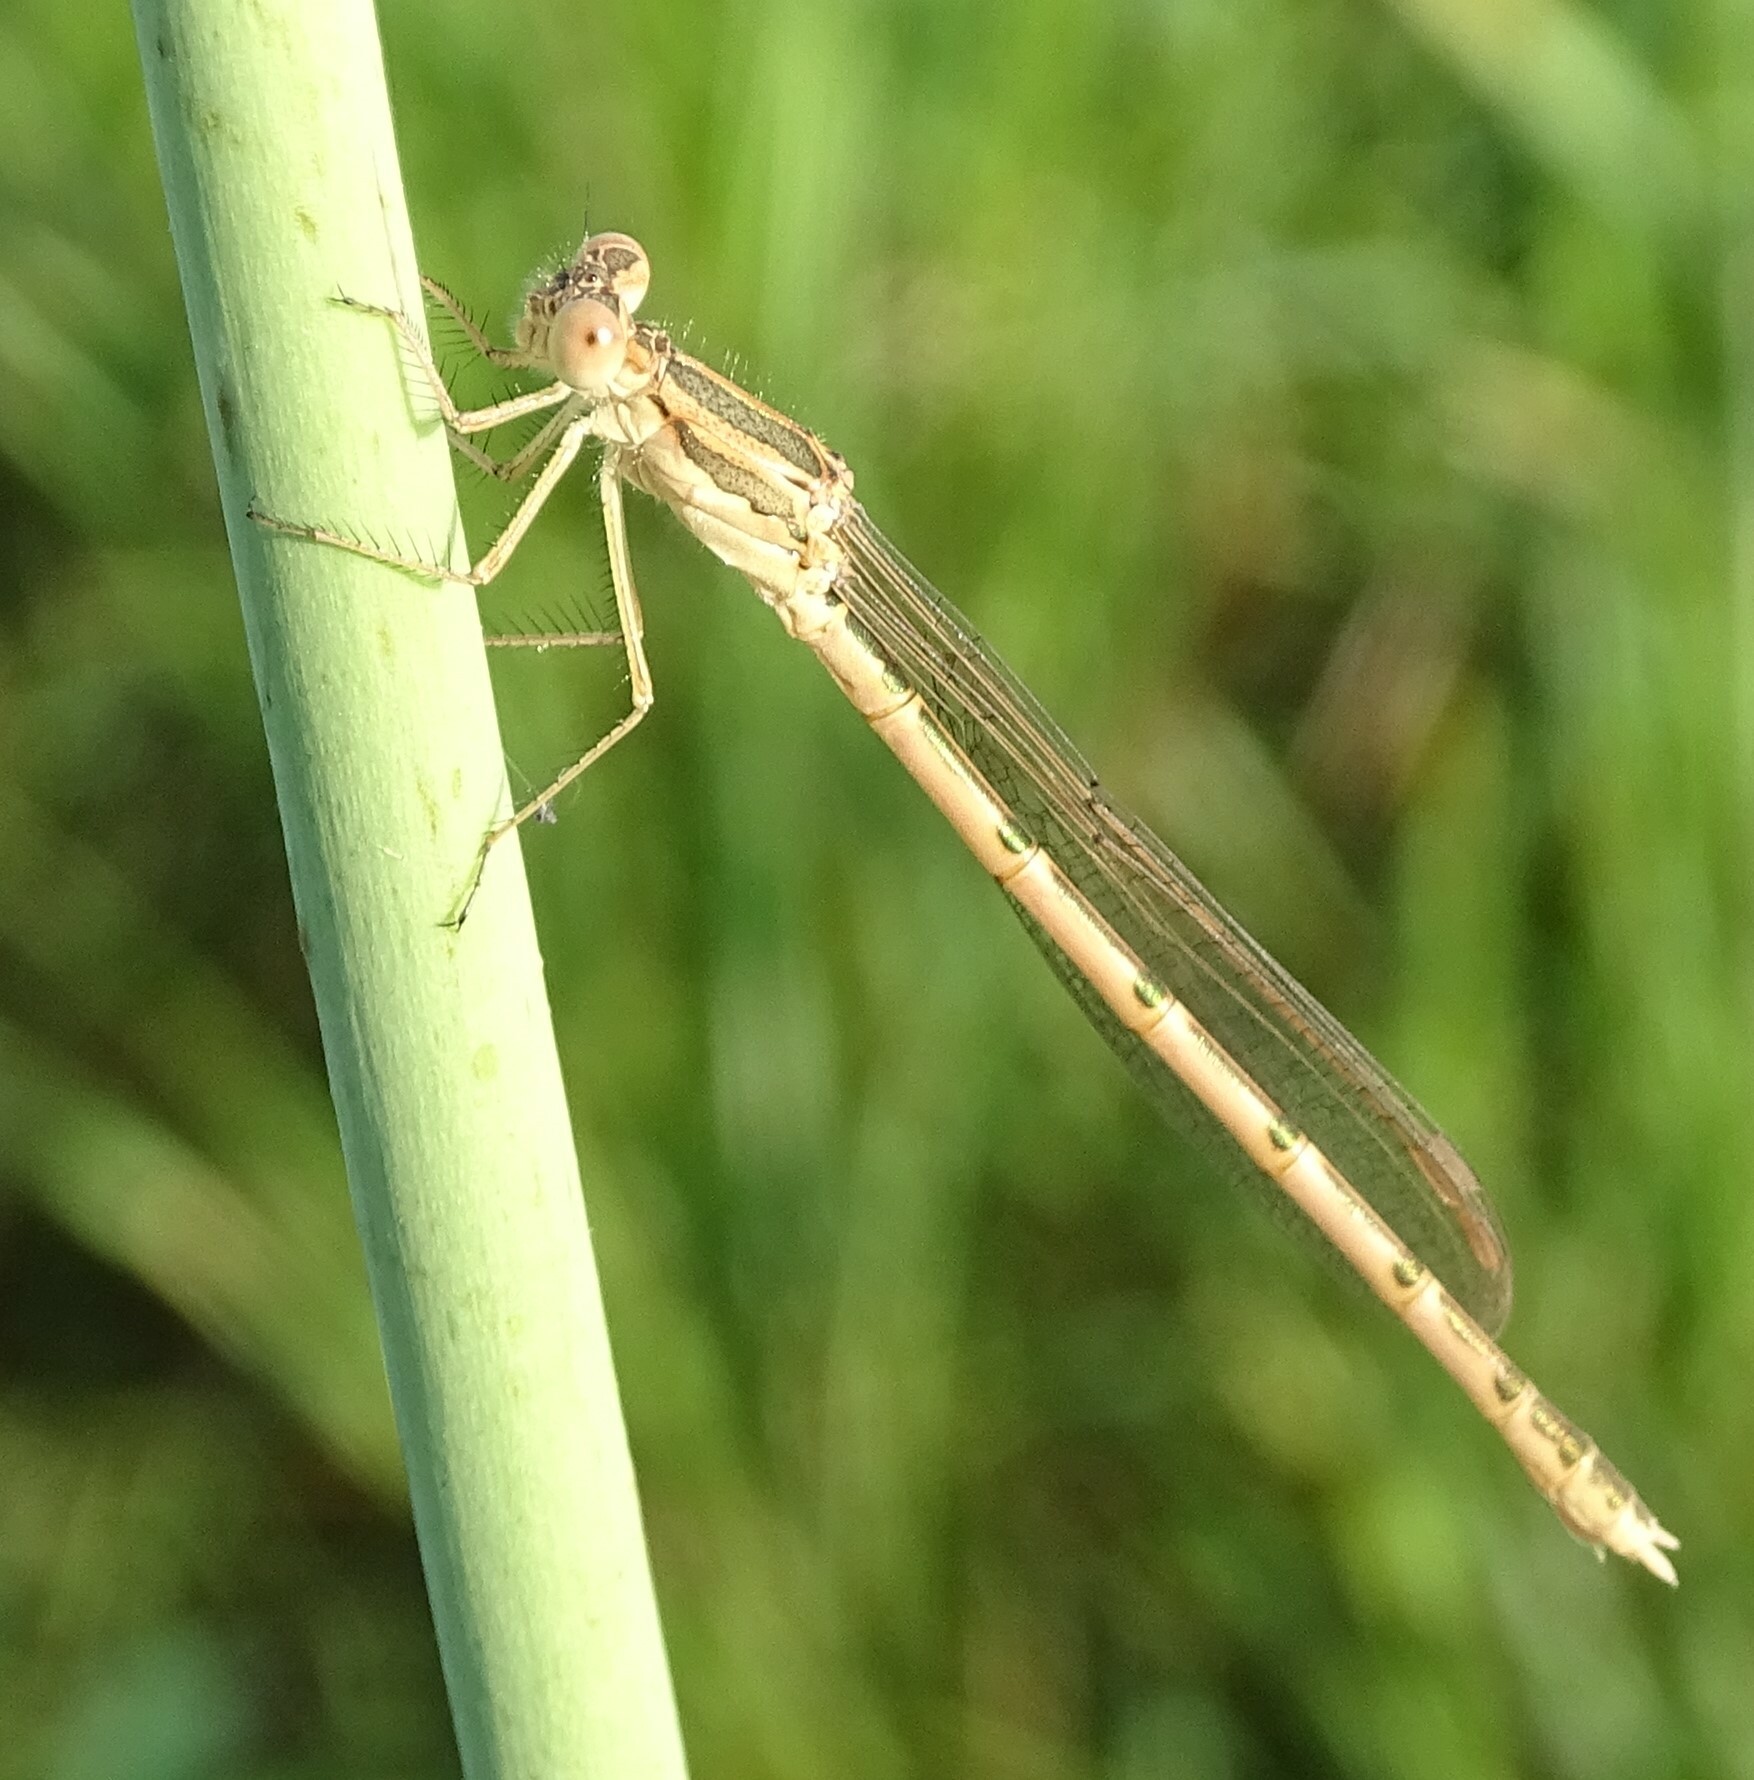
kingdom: Animalia
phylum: Arthropoda
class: Insecta
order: Odonata
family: Lestidae
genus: Sympecma
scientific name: Sympecma fusca
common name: Common winter damsel
